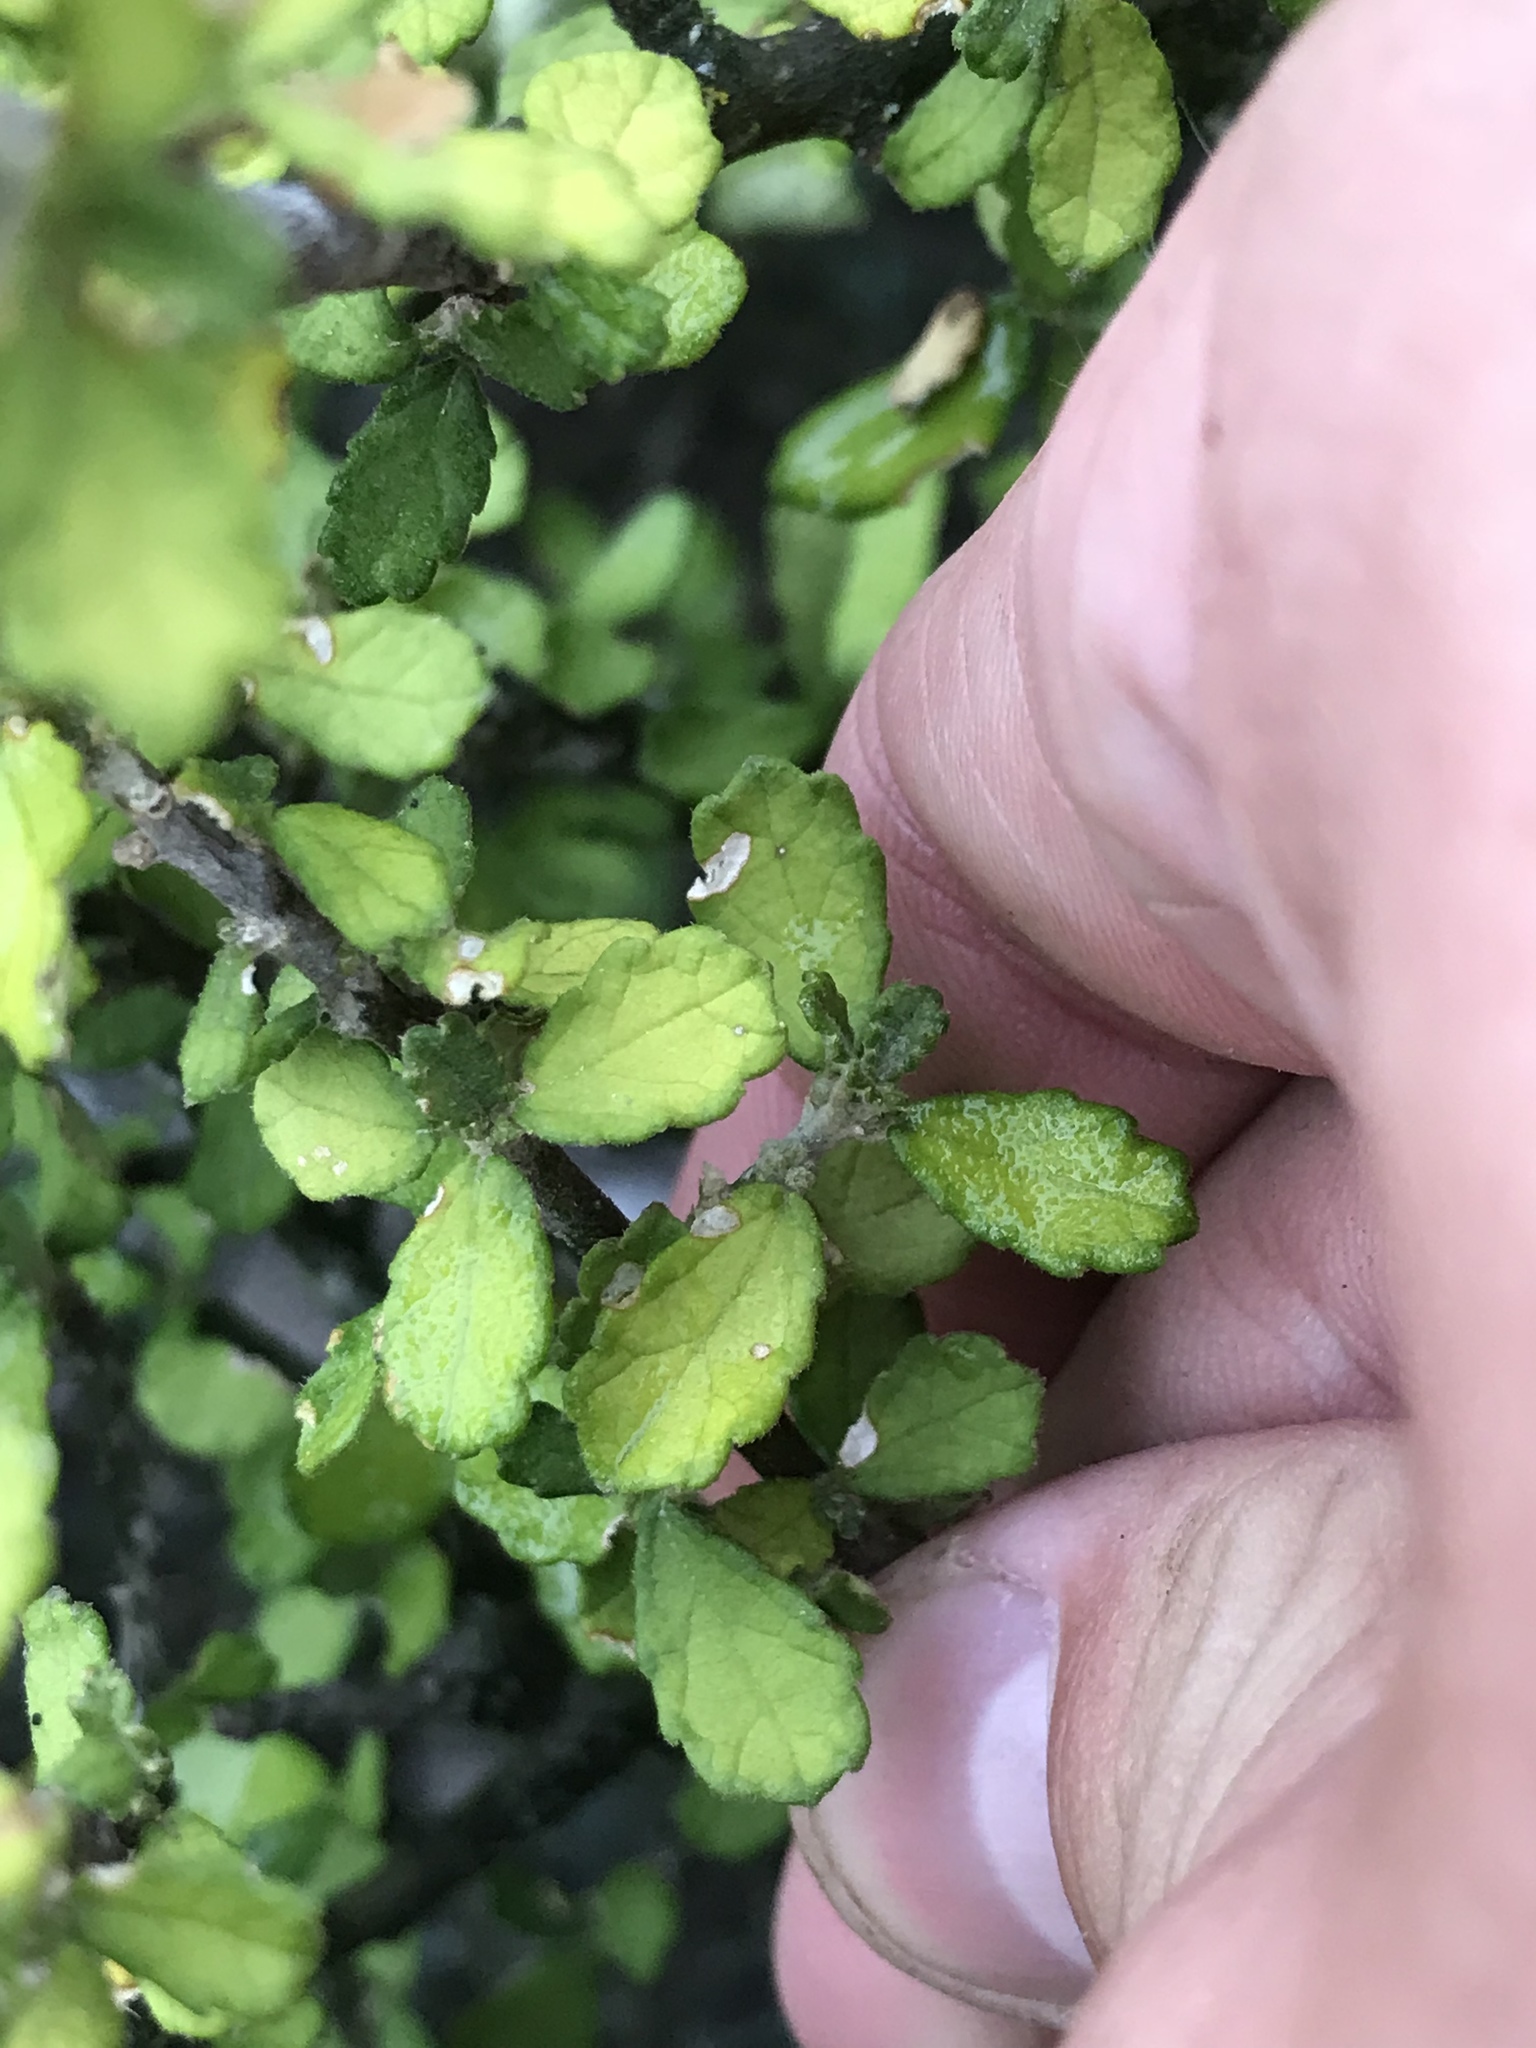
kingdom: Plantae
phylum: Tracheophyta
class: Magnoliopsida
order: Malpighiales
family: Euphorbiaceae
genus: Bernardia
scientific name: Bernardia myricifolia
